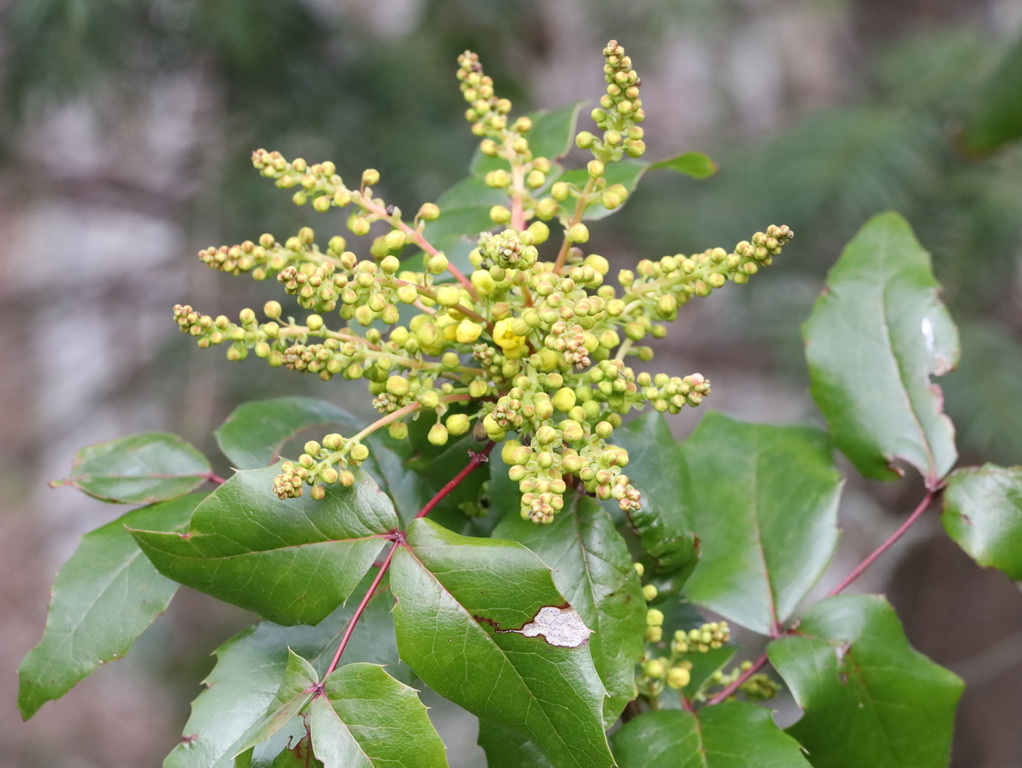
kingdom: Plantae
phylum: Tracheophyta
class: Magnoliopsida
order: Ranunculales
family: Berberidaceae
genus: Mahonia
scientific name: Mahonia aquifolium
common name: Oregon-grape
